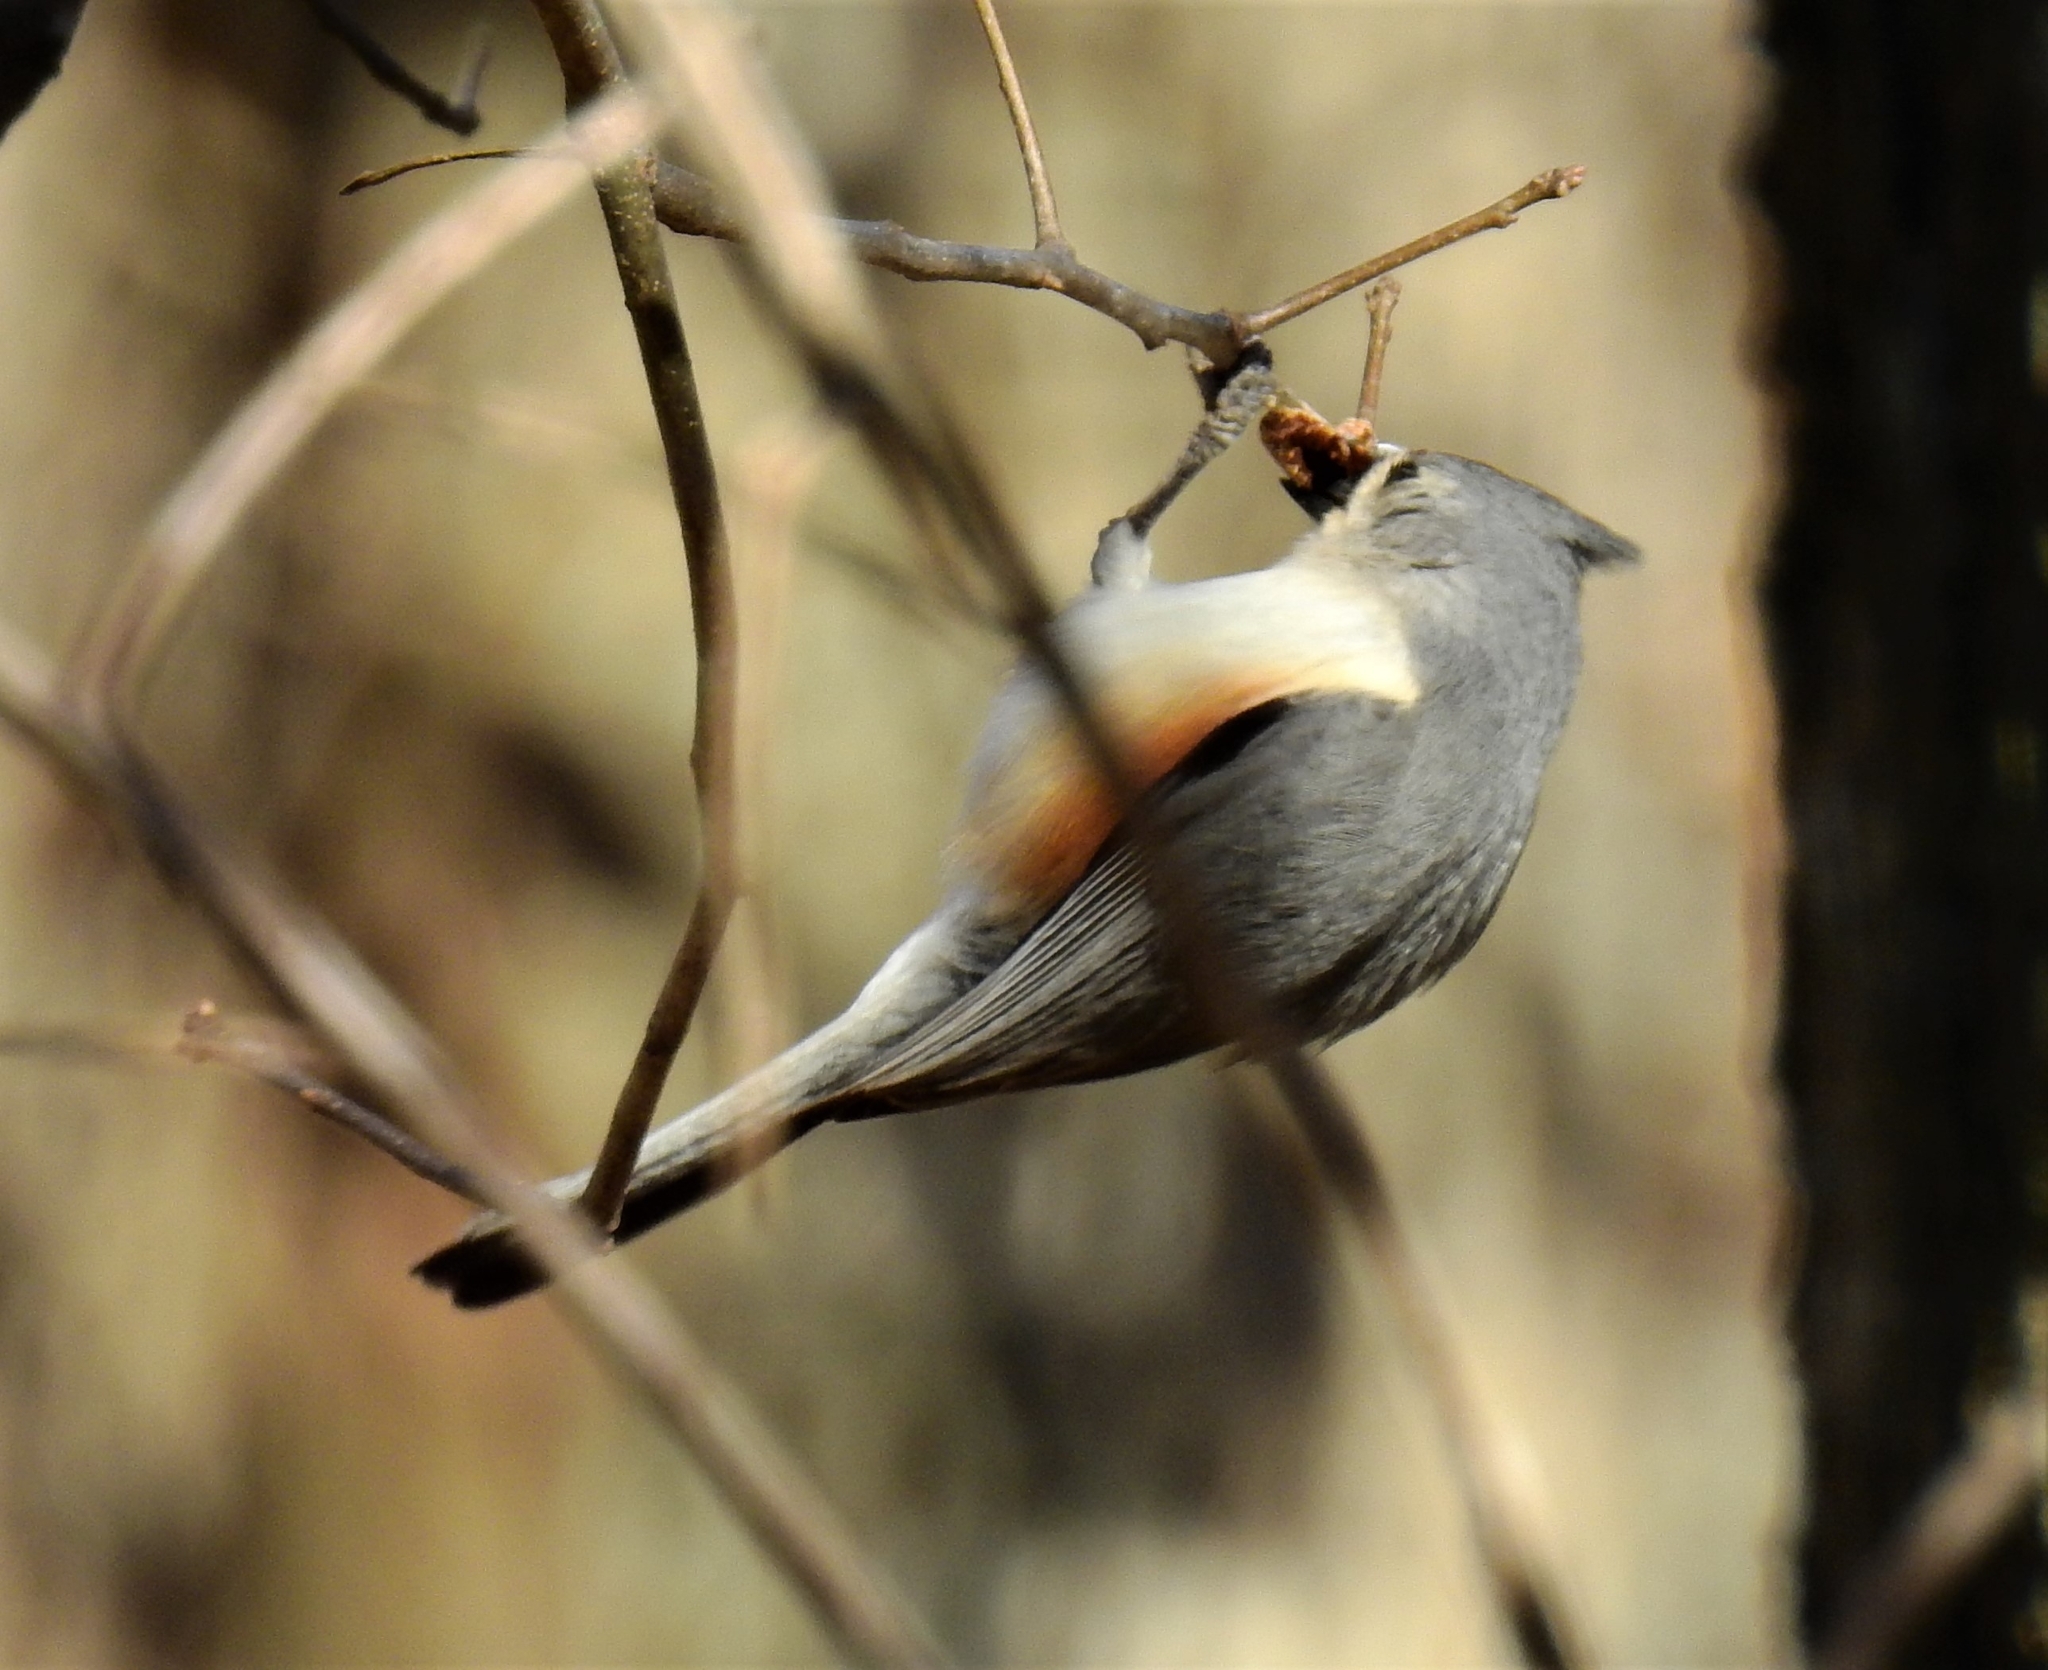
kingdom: Animalia
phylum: Chordata
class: Aves
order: Passeriformes
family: Paridae
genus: Baeolophus
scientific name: Baeolophus bicolor
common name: Tufted titmouse
